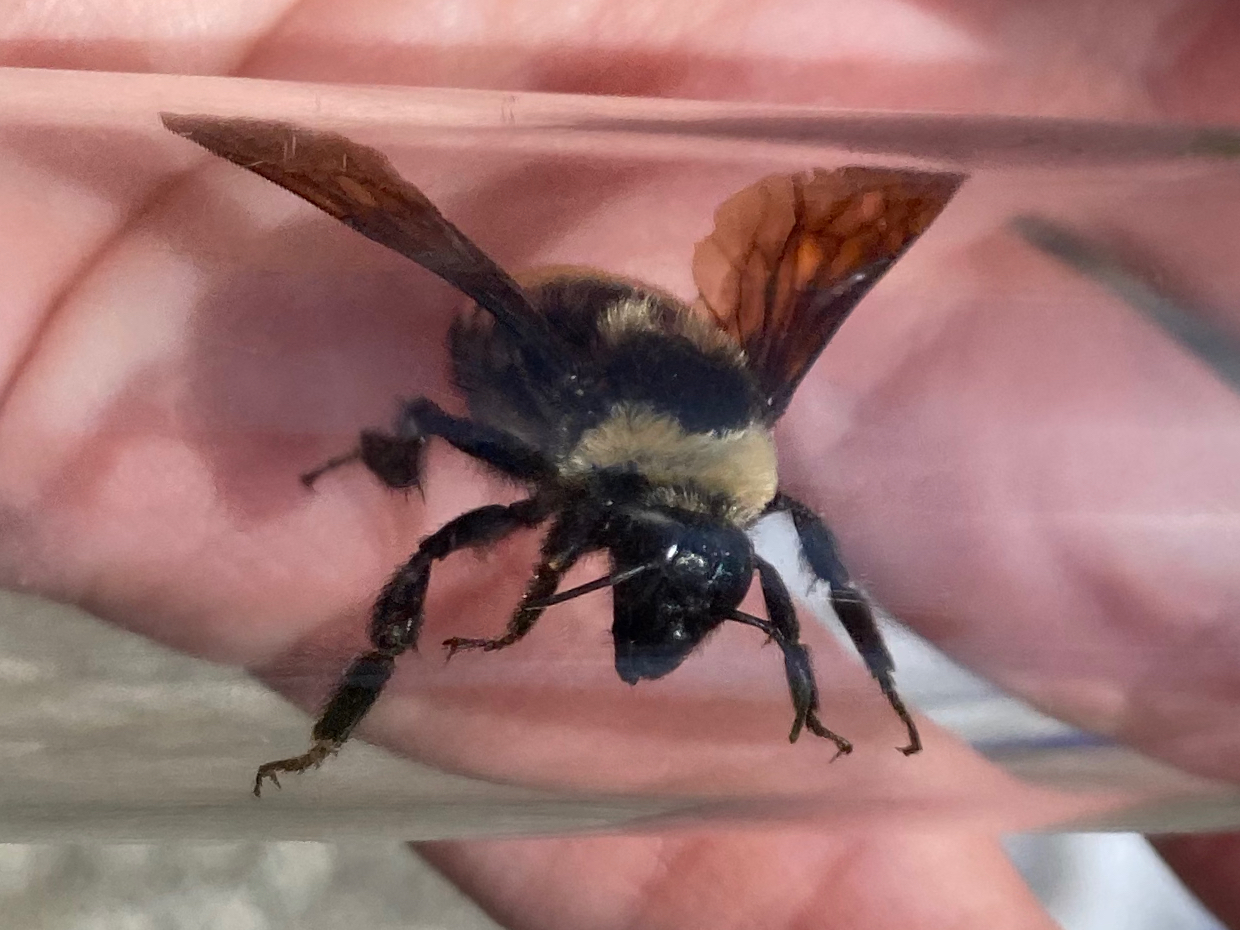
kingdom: Animalia
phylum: Arthropoda
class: Insecta
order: Hymenoptera
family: Apidae
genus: Bombus
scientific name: Bombus auricomus
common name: Black and gold bumble bee
